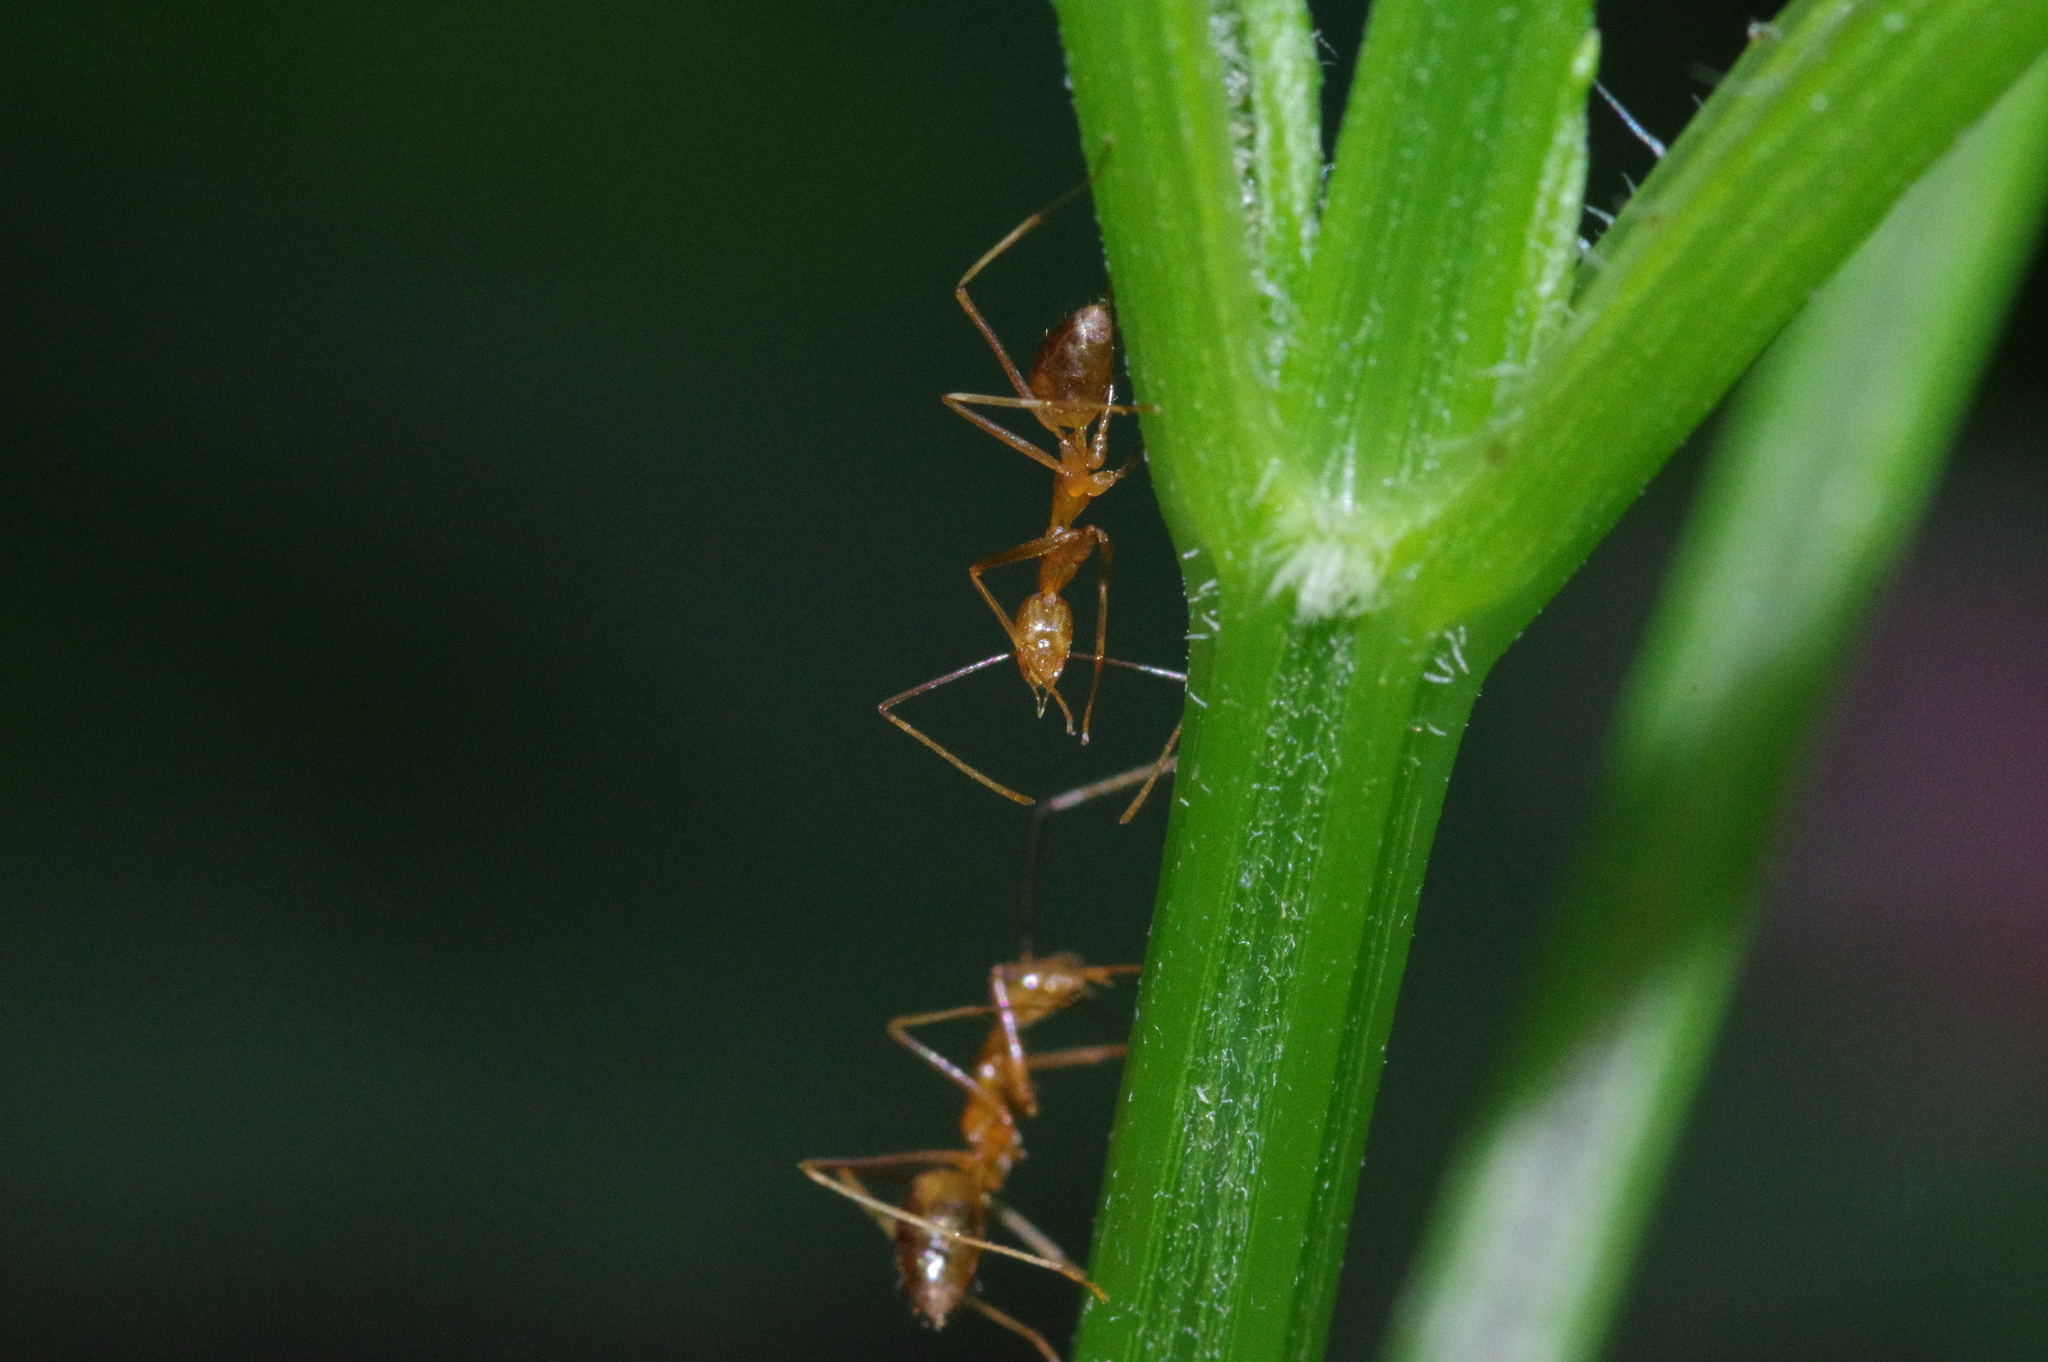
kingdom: Animalia
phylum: Arthropoda
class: Insecta
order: Hymenoptera
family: Formicidae
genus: Anoplolepis
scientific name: Anoplolepis gracilipes
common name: Ant
